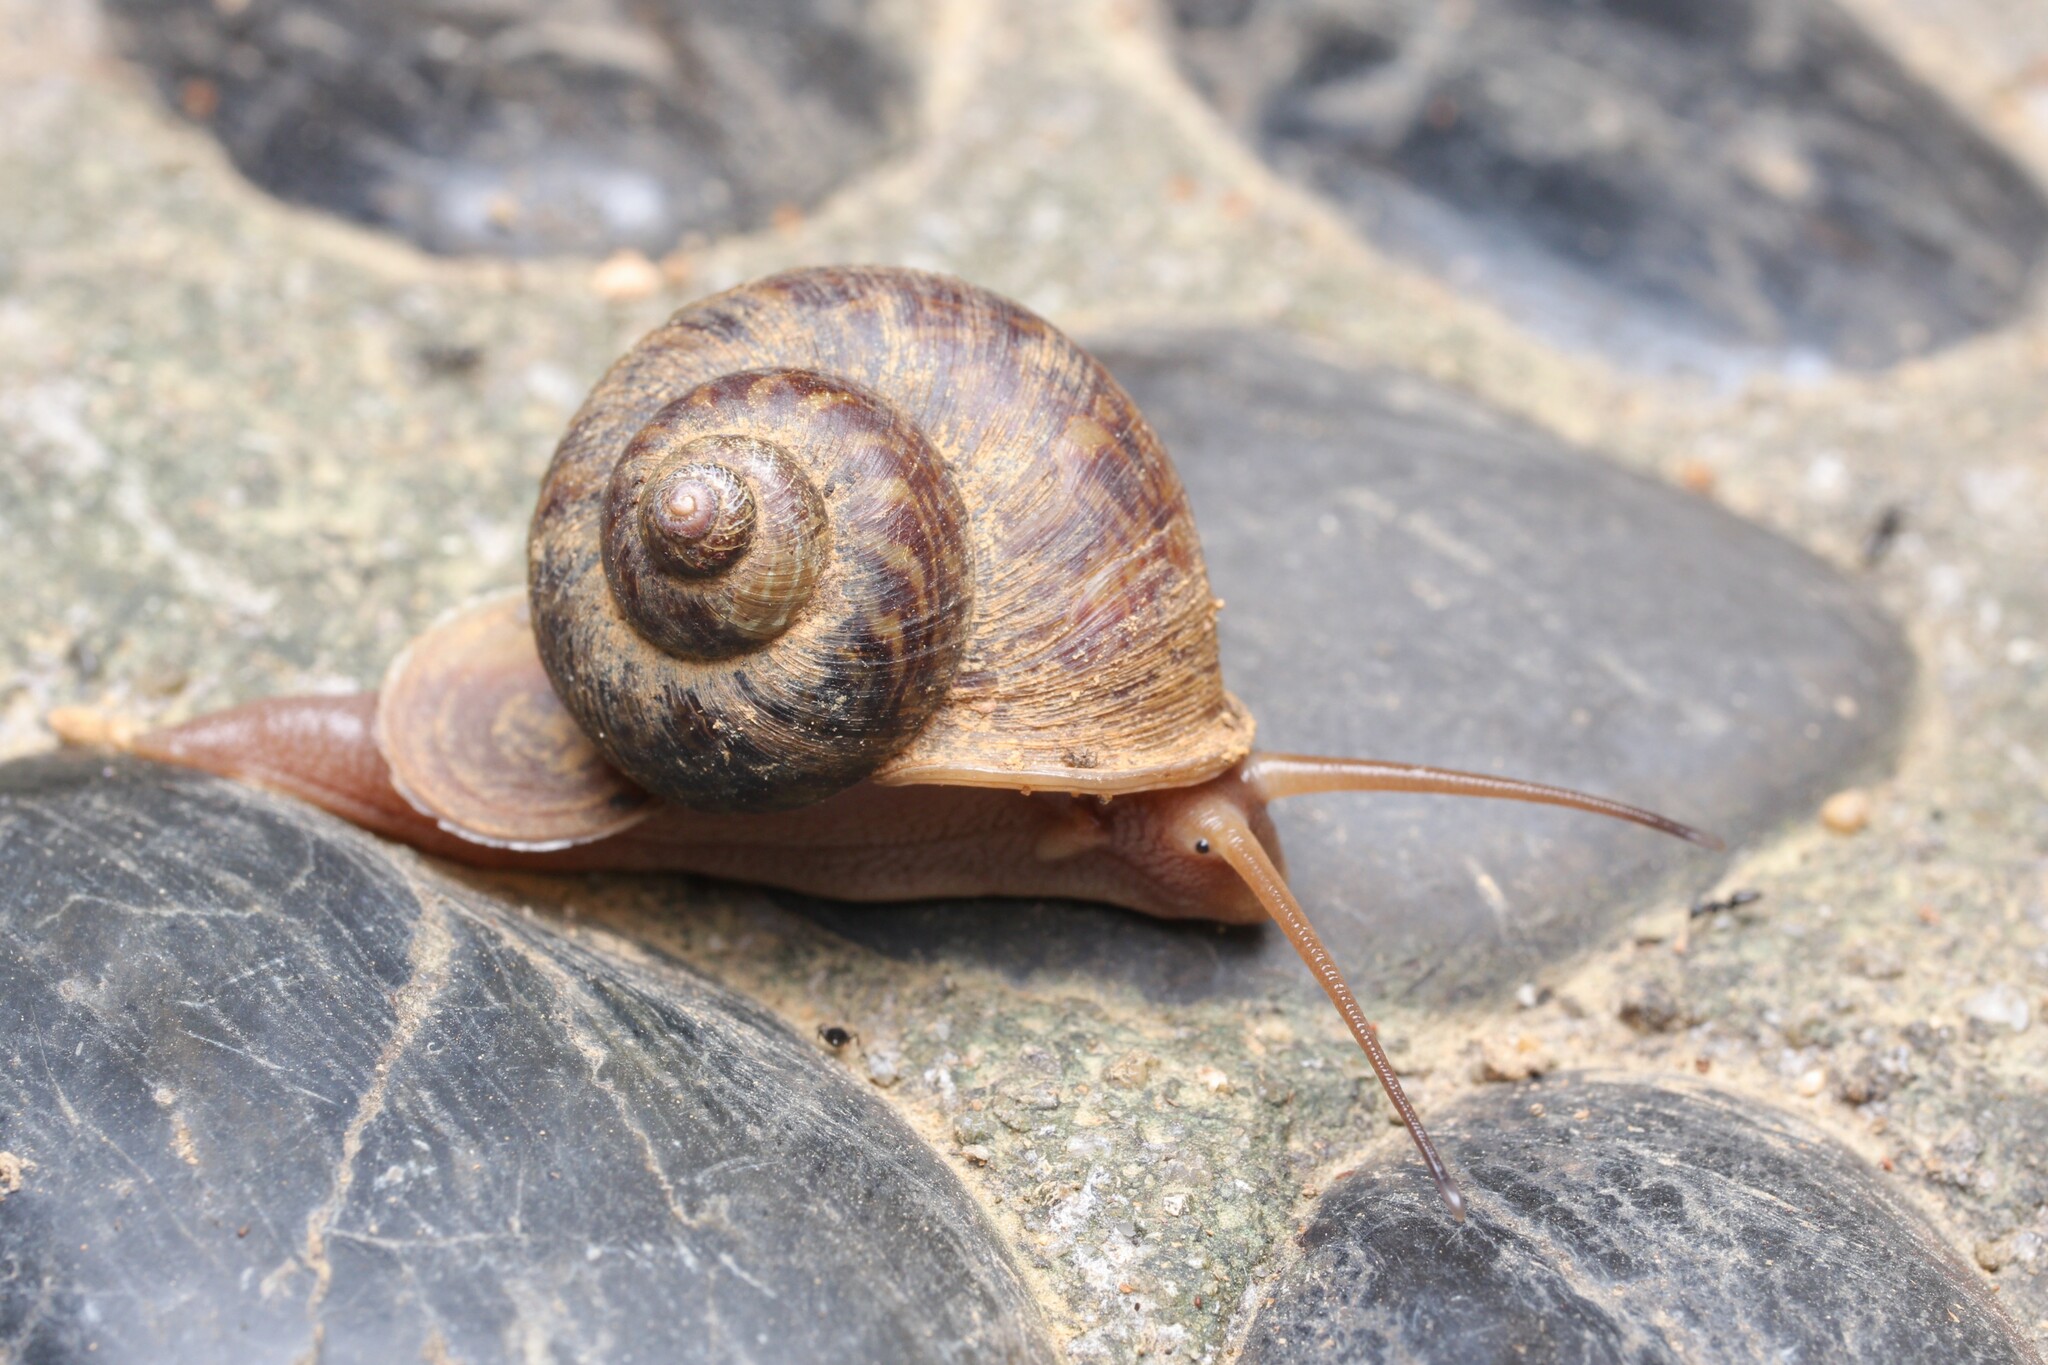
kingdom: Animalia
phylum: Mollusca
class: Gastropoda
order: Architaenioglossa
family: Cyclophoridae
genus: Cyclophorus
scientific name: Cyclophorus punctatus
